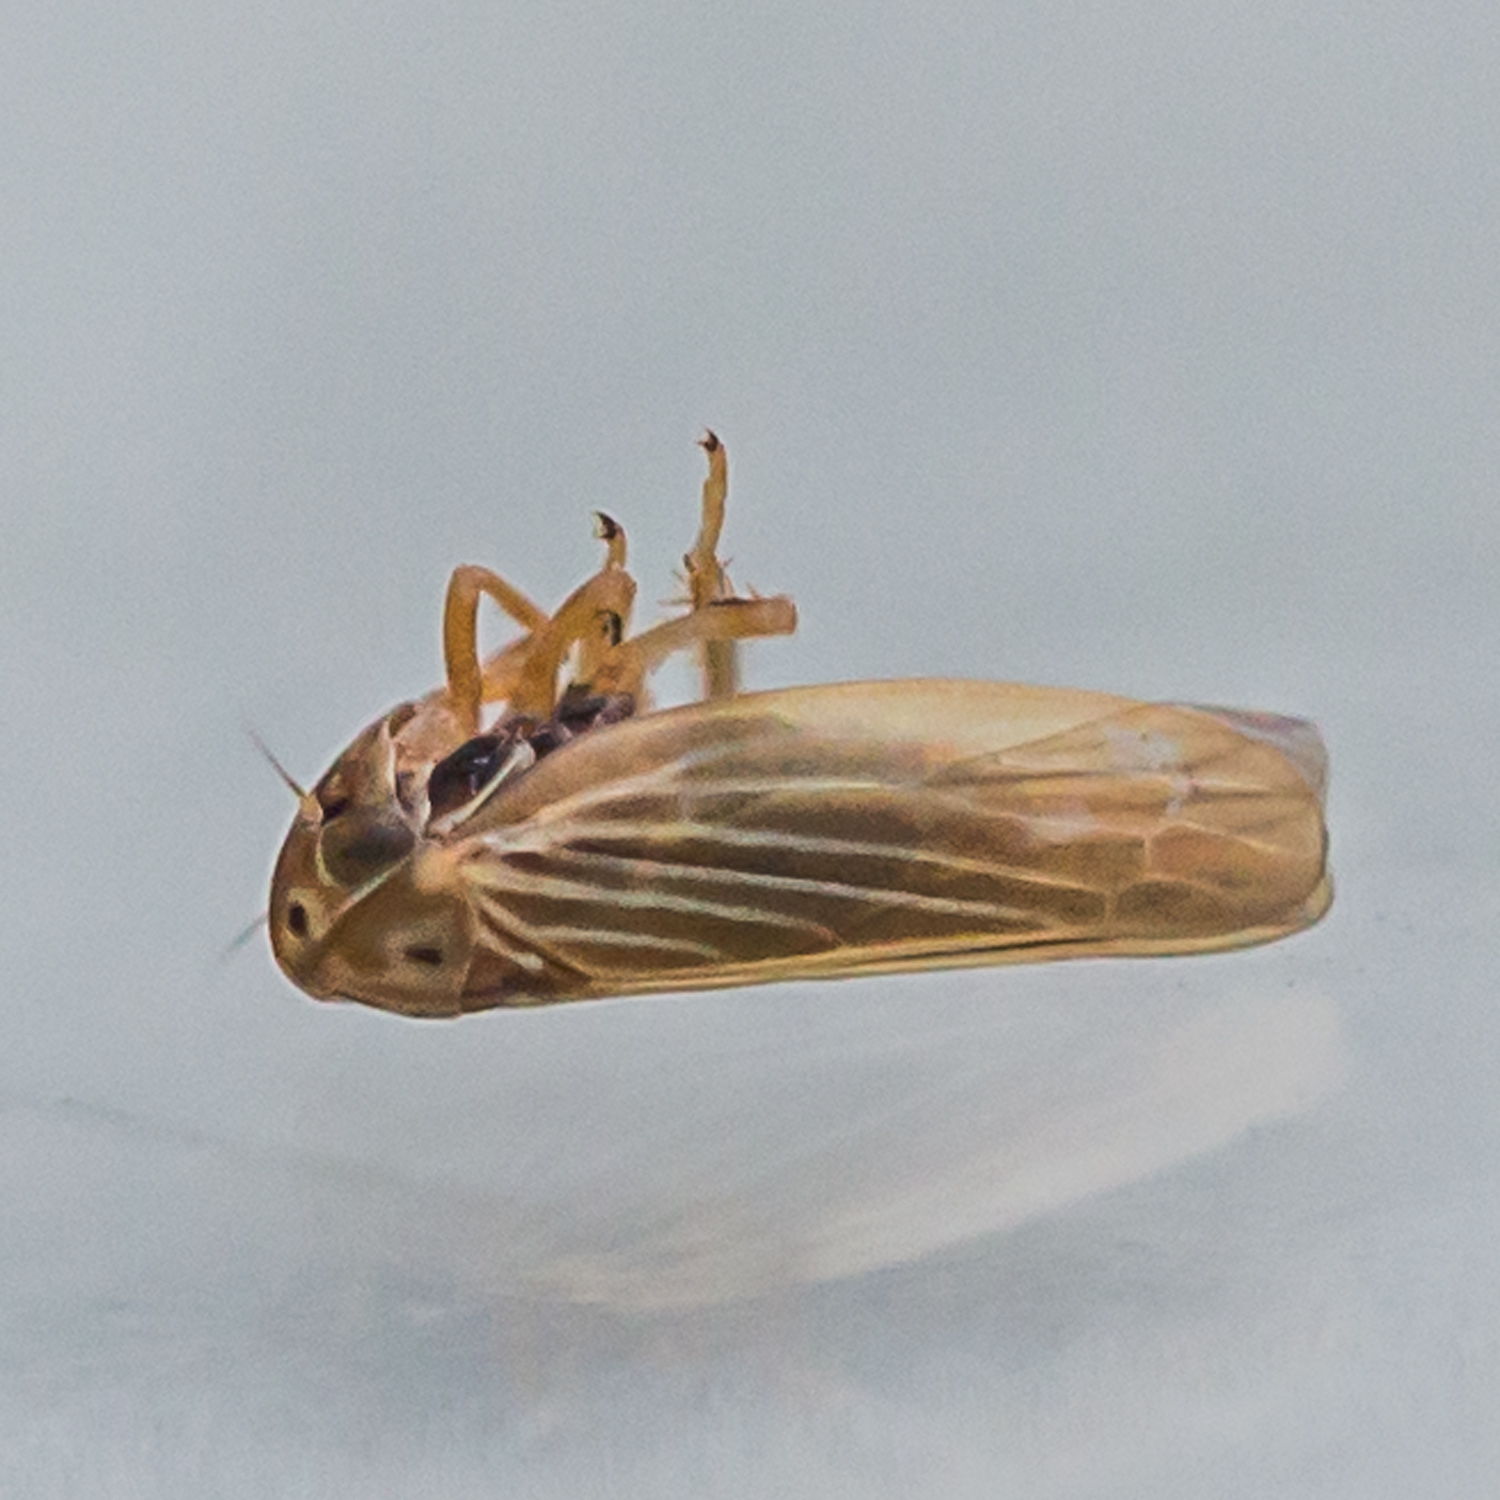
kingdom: Animalia
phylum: Arthropoda
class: Insecta
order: Hemiptera
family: Cicadellidae
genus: Agallia
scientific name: Agallia constricta
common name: The constricted leafhopper
